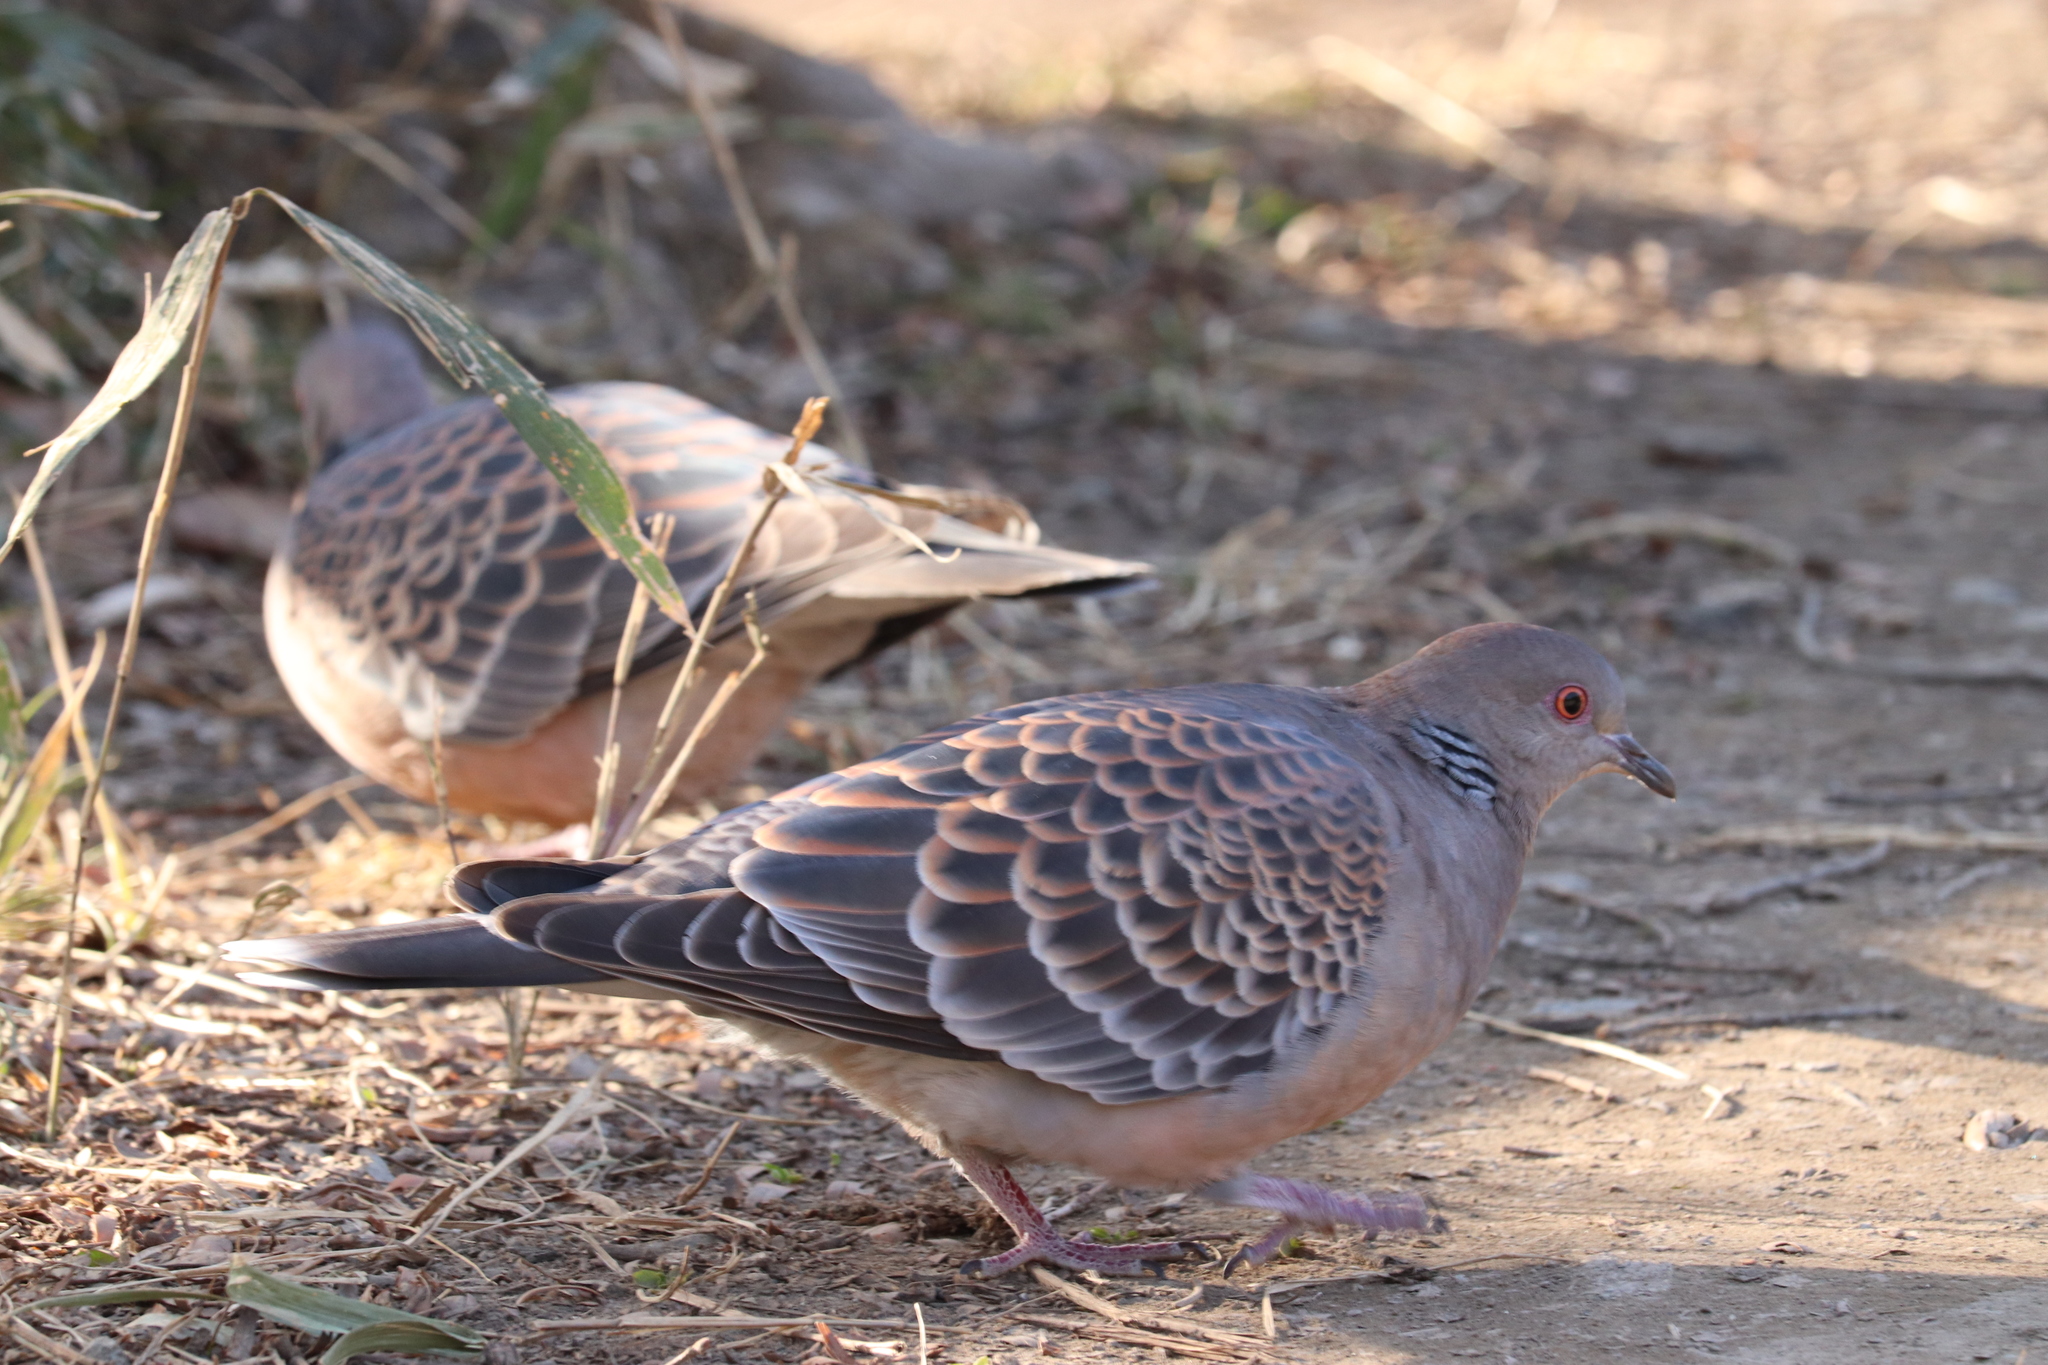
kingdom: Animalia
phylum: Chordata
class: Aves
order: Columbiformes
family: Columbidae
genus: Streptopelia
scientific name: Streptopelia orientalis
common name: Oriental turtle dove
